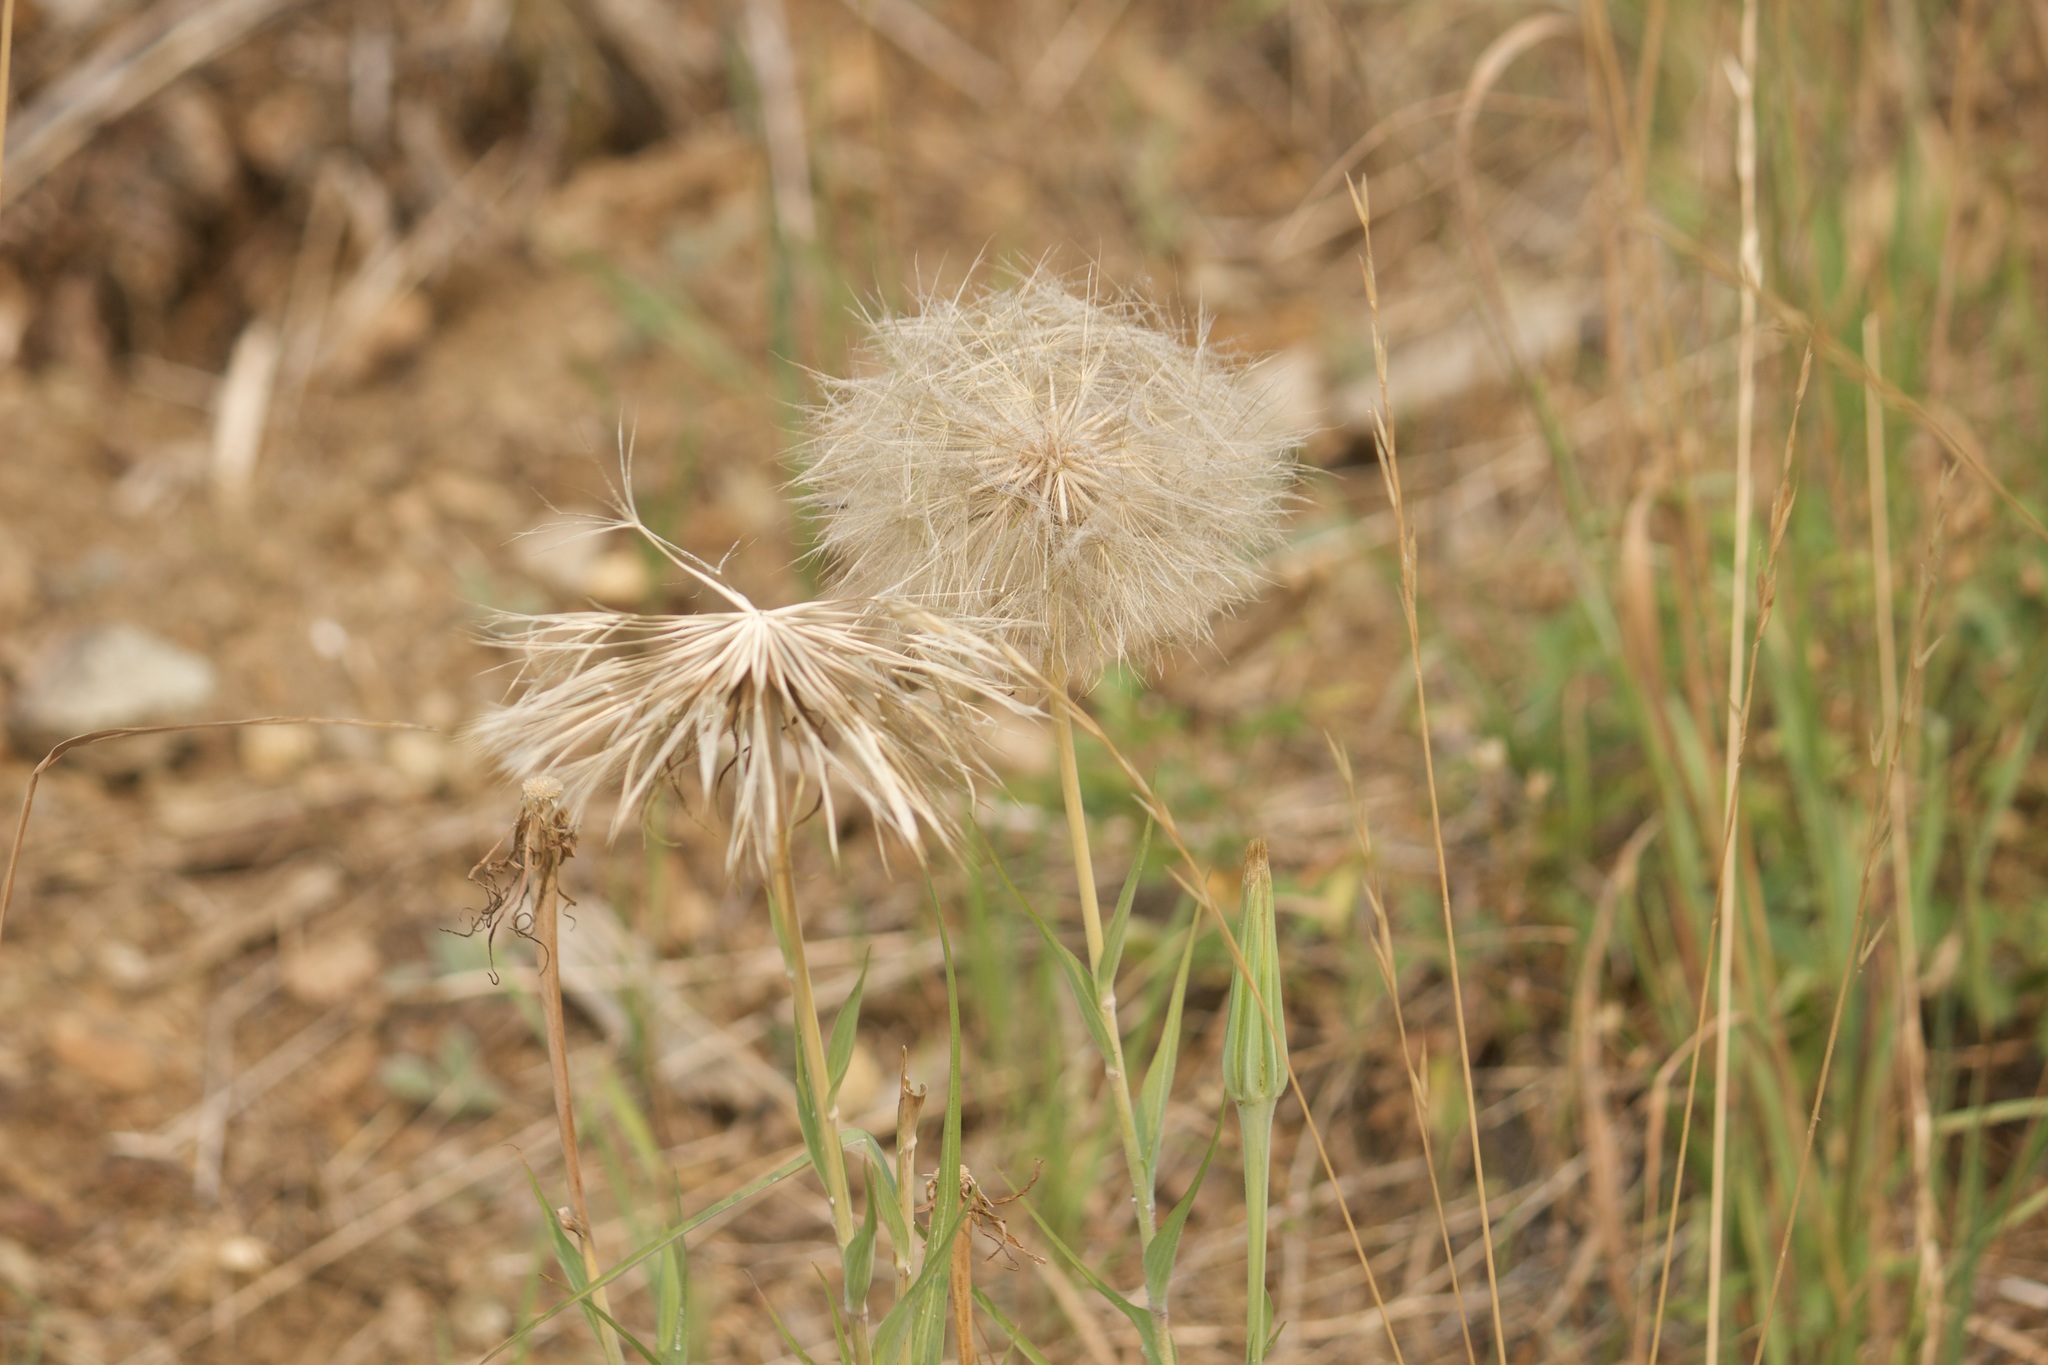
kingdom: Plantae
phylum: Tracheophyta
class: Magnoliopsida
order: Asterales
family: Asteraceae
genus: Tragopogon
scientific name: Tragopogon porrifolius
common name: Salsify
